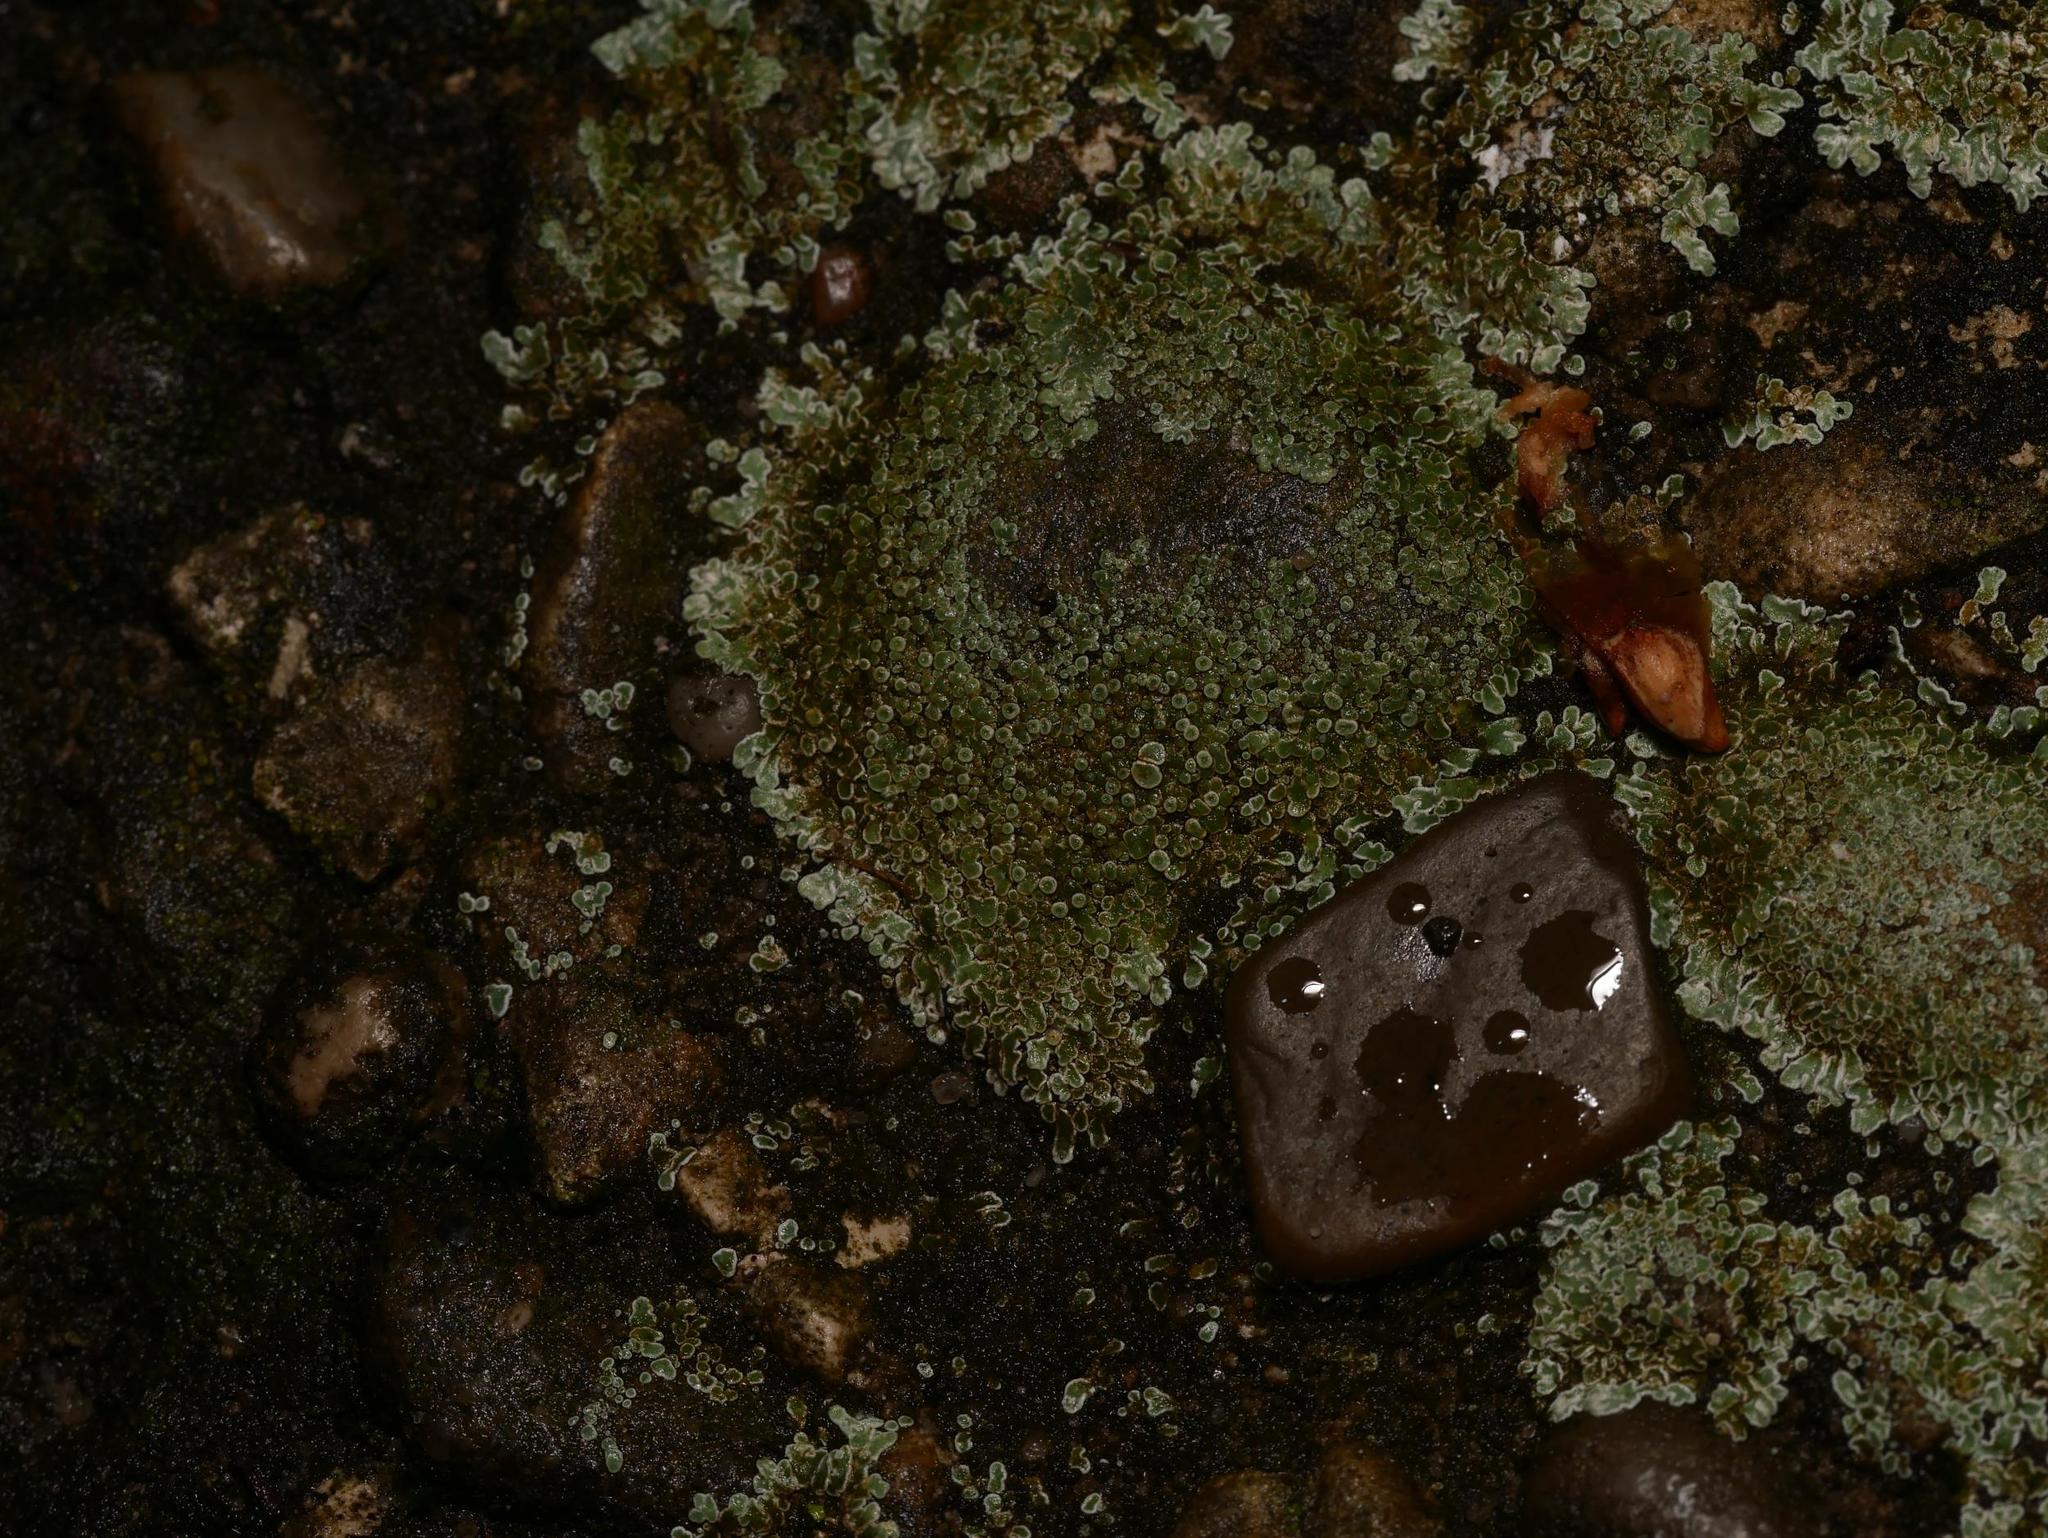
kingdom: Fungi
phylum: Ascomycota
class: Lecanoromycetes
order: Lecanorales
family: Lecanoraceae
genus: Protoparmeliopsis
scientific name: Protoparmeliopsis muralis
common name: Stonewall rim lichen
